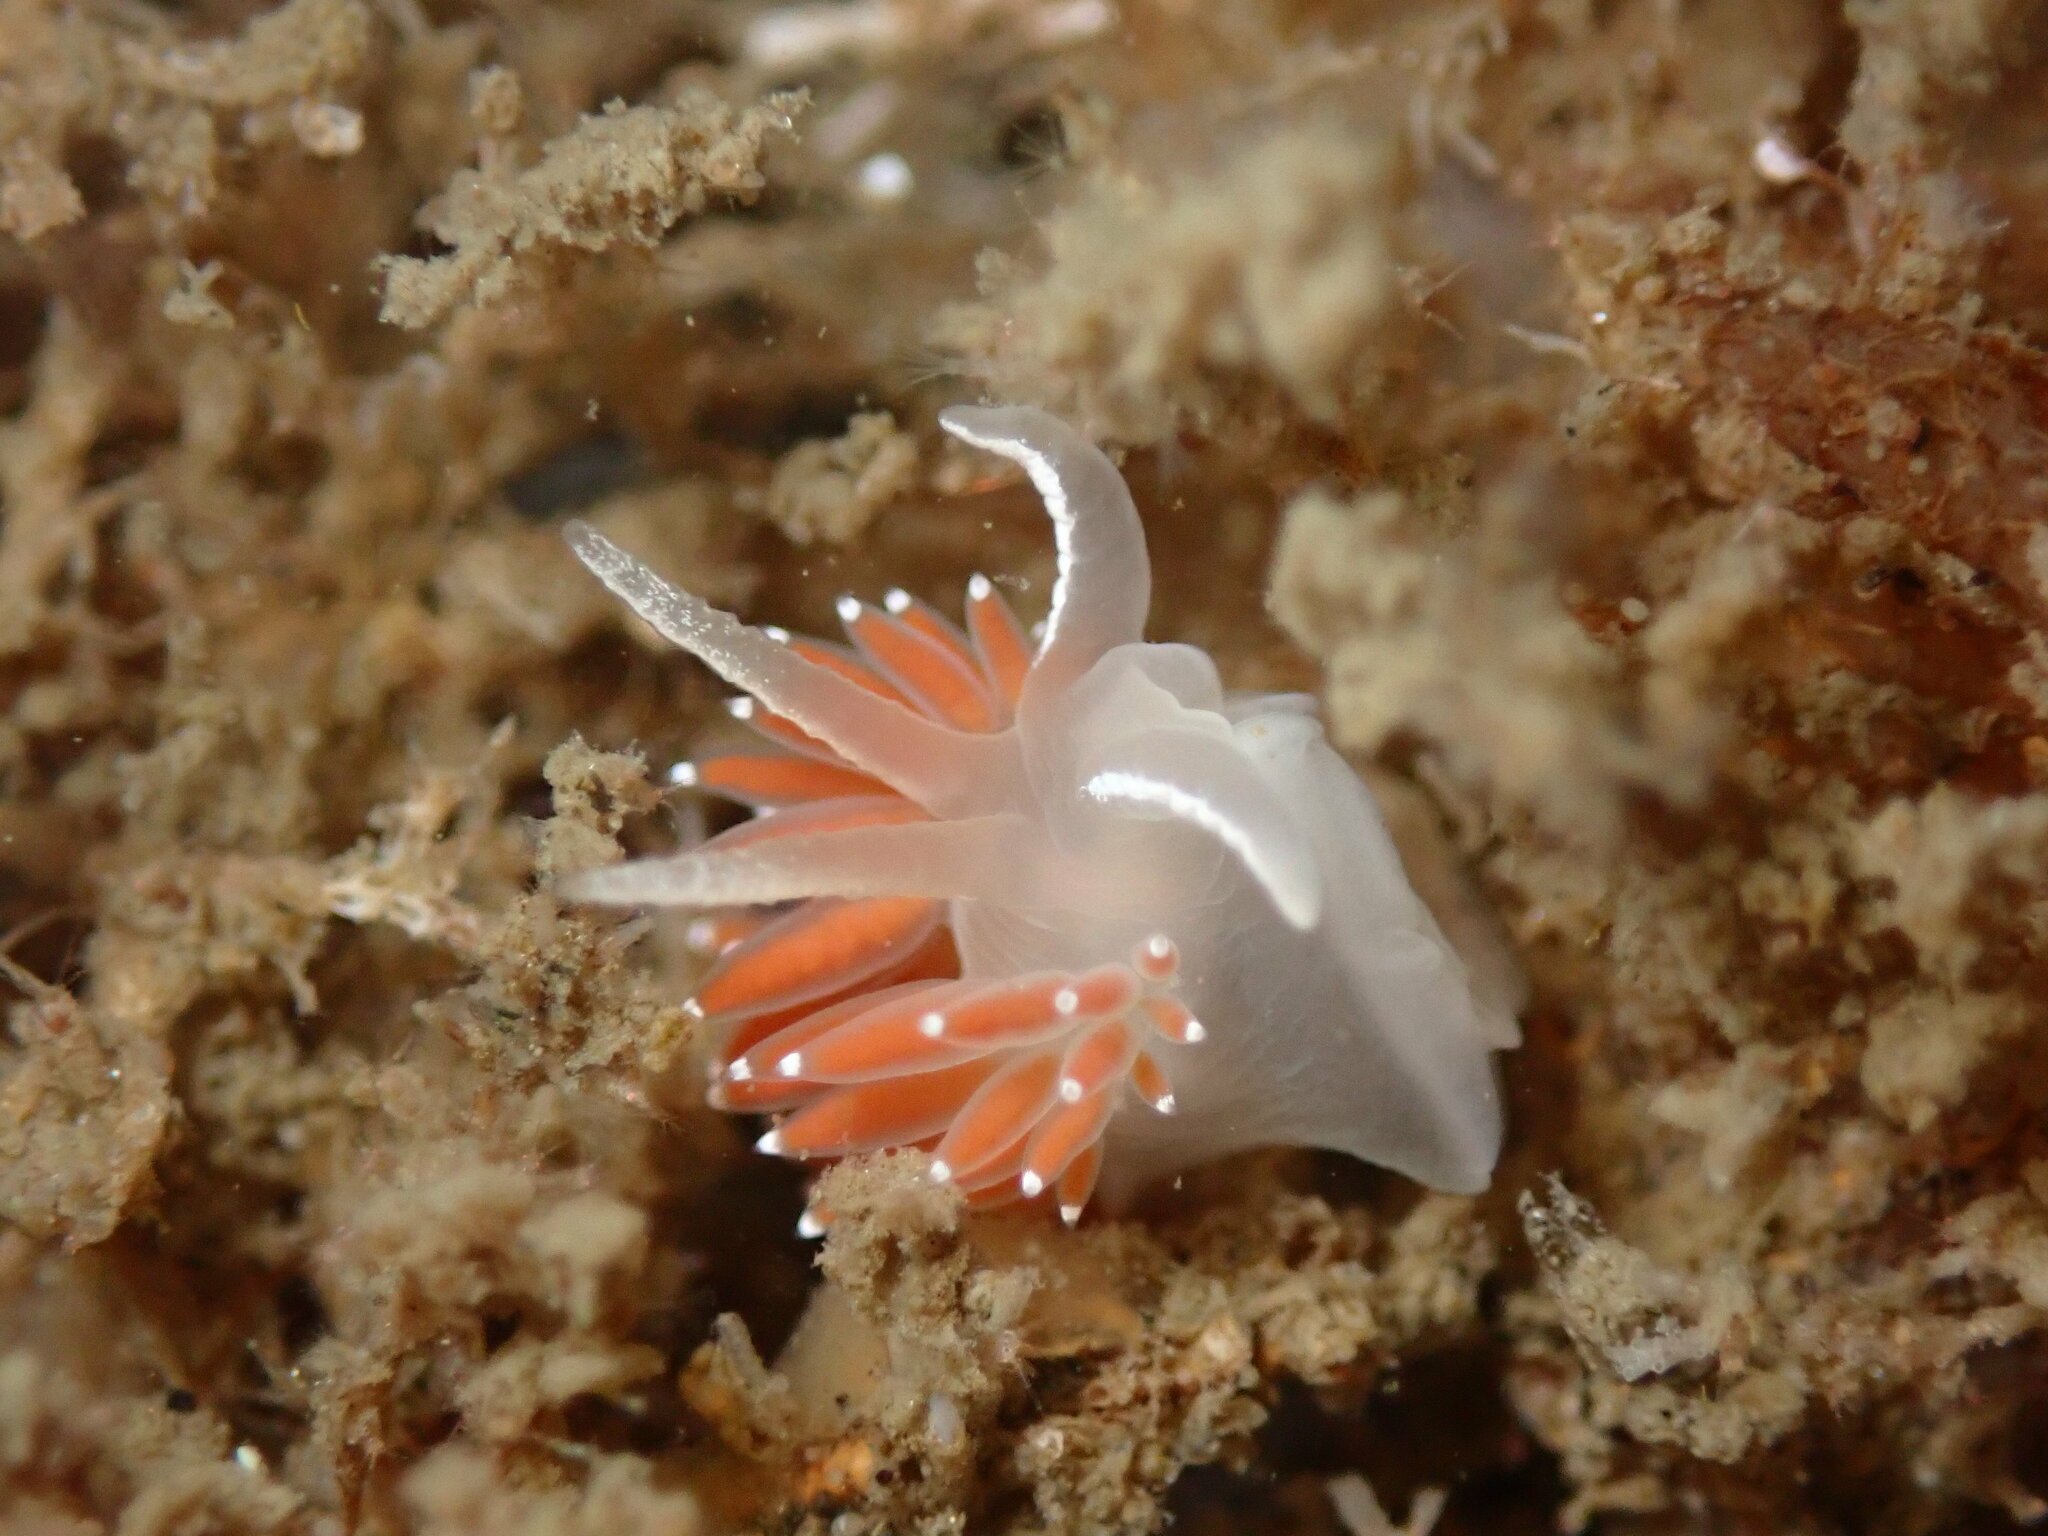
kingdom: Animalia
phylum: Mollusca
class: Gastropoda
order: Nudibranchia
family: Coryphellidae
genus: Coryphella
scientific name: Coryphella verrucosa
